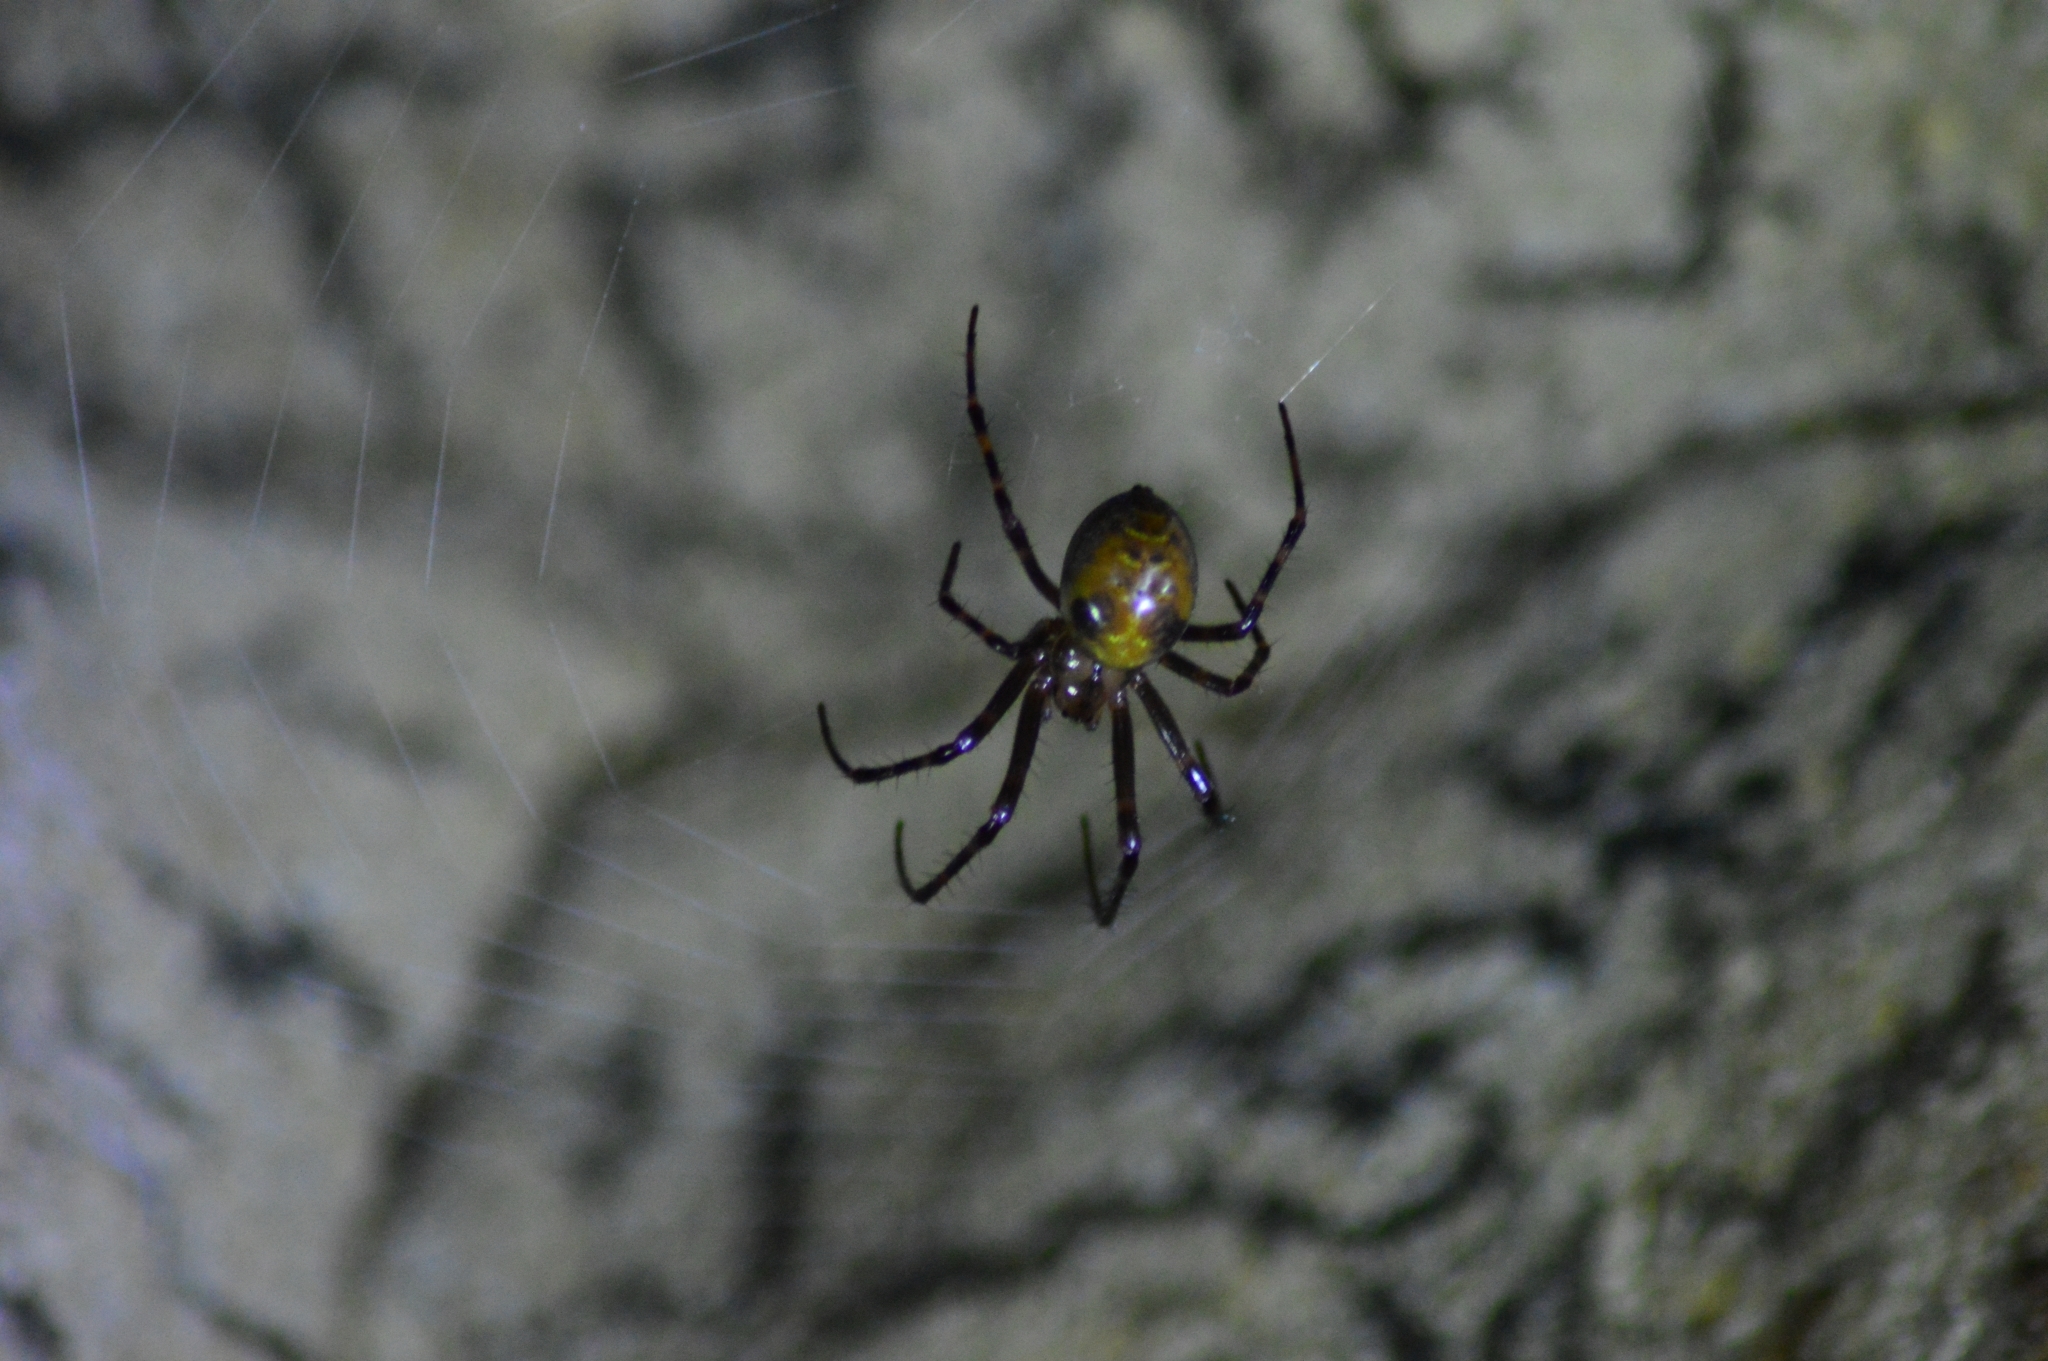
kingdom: Animalia
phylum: Arthropoda
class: Arachnida
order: Araneae
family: Tetragnathidae
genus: Meta
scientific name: Meta menardi
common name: Cave spider
